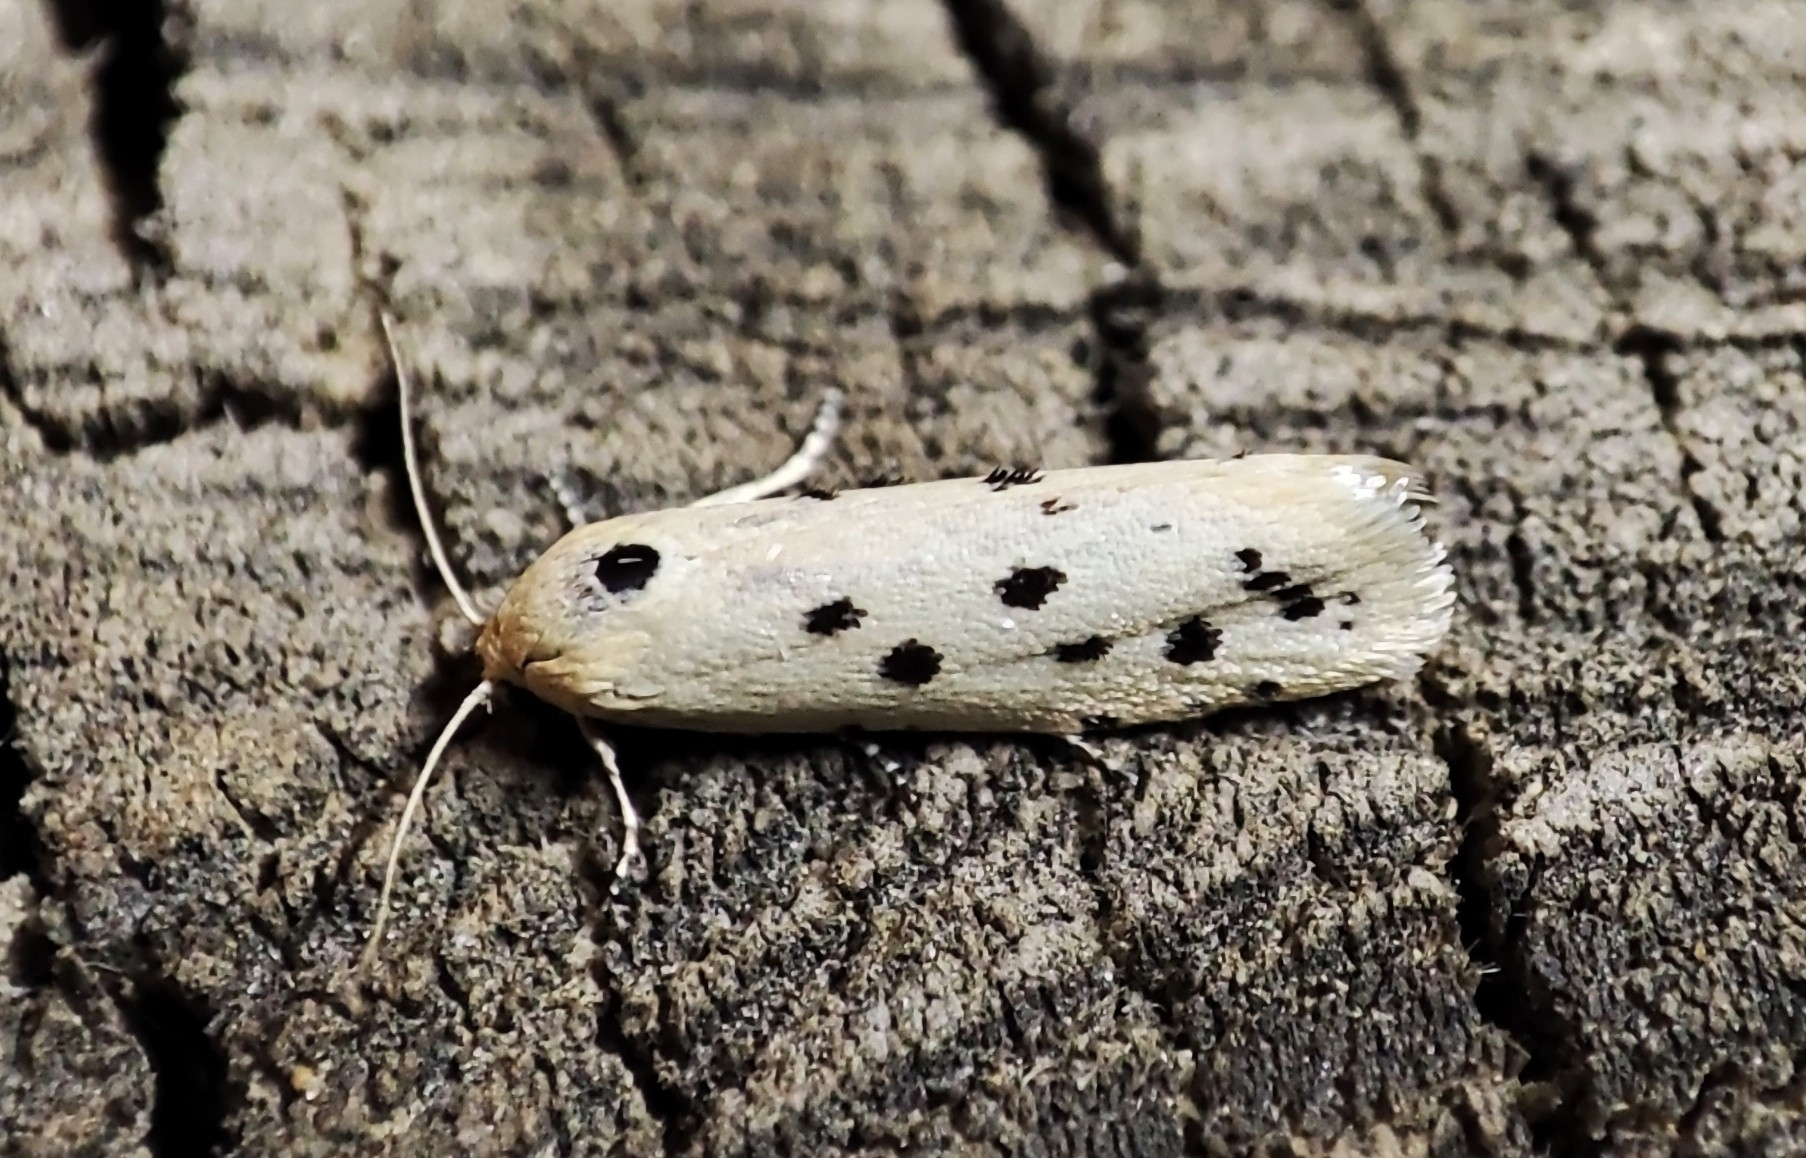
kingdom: Animalia
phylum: Arthropoda
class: Insecta
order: Lepidoptera
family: Galacticidae
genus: Galactica
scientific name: Galactica walsinghami
